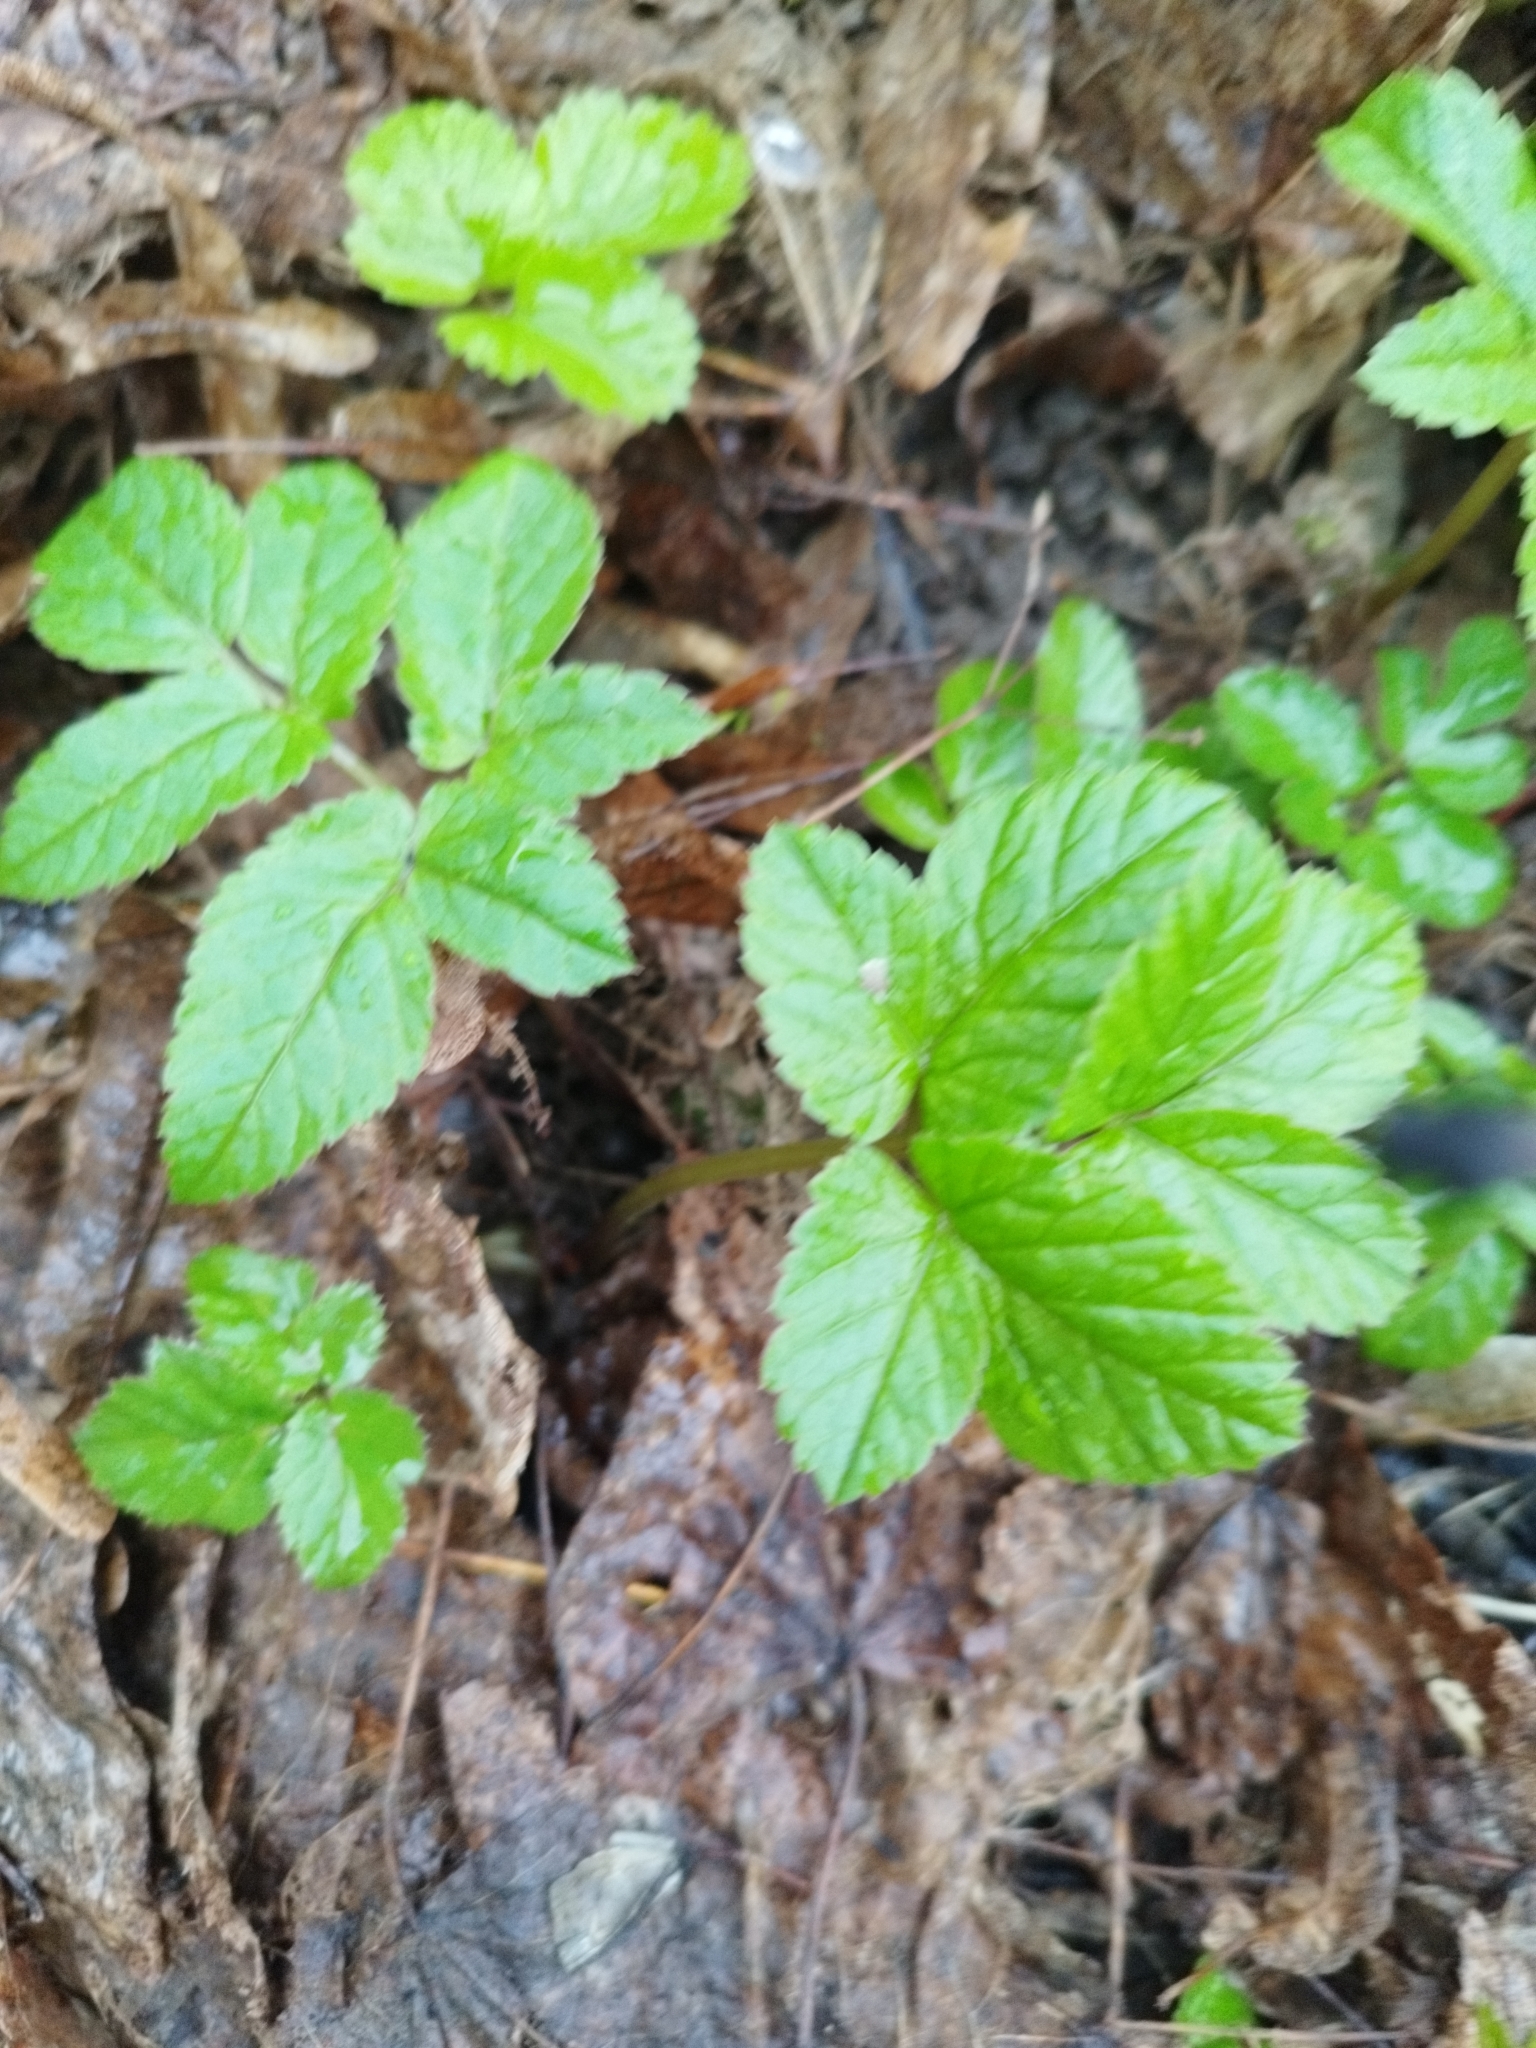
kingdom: Plantae
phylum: Tracheophyta
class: Magnoliopsida
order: Apiales
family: Apiaceae
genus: Aegopodium
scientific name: Aegopodium podagraria
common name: Ground-elder
